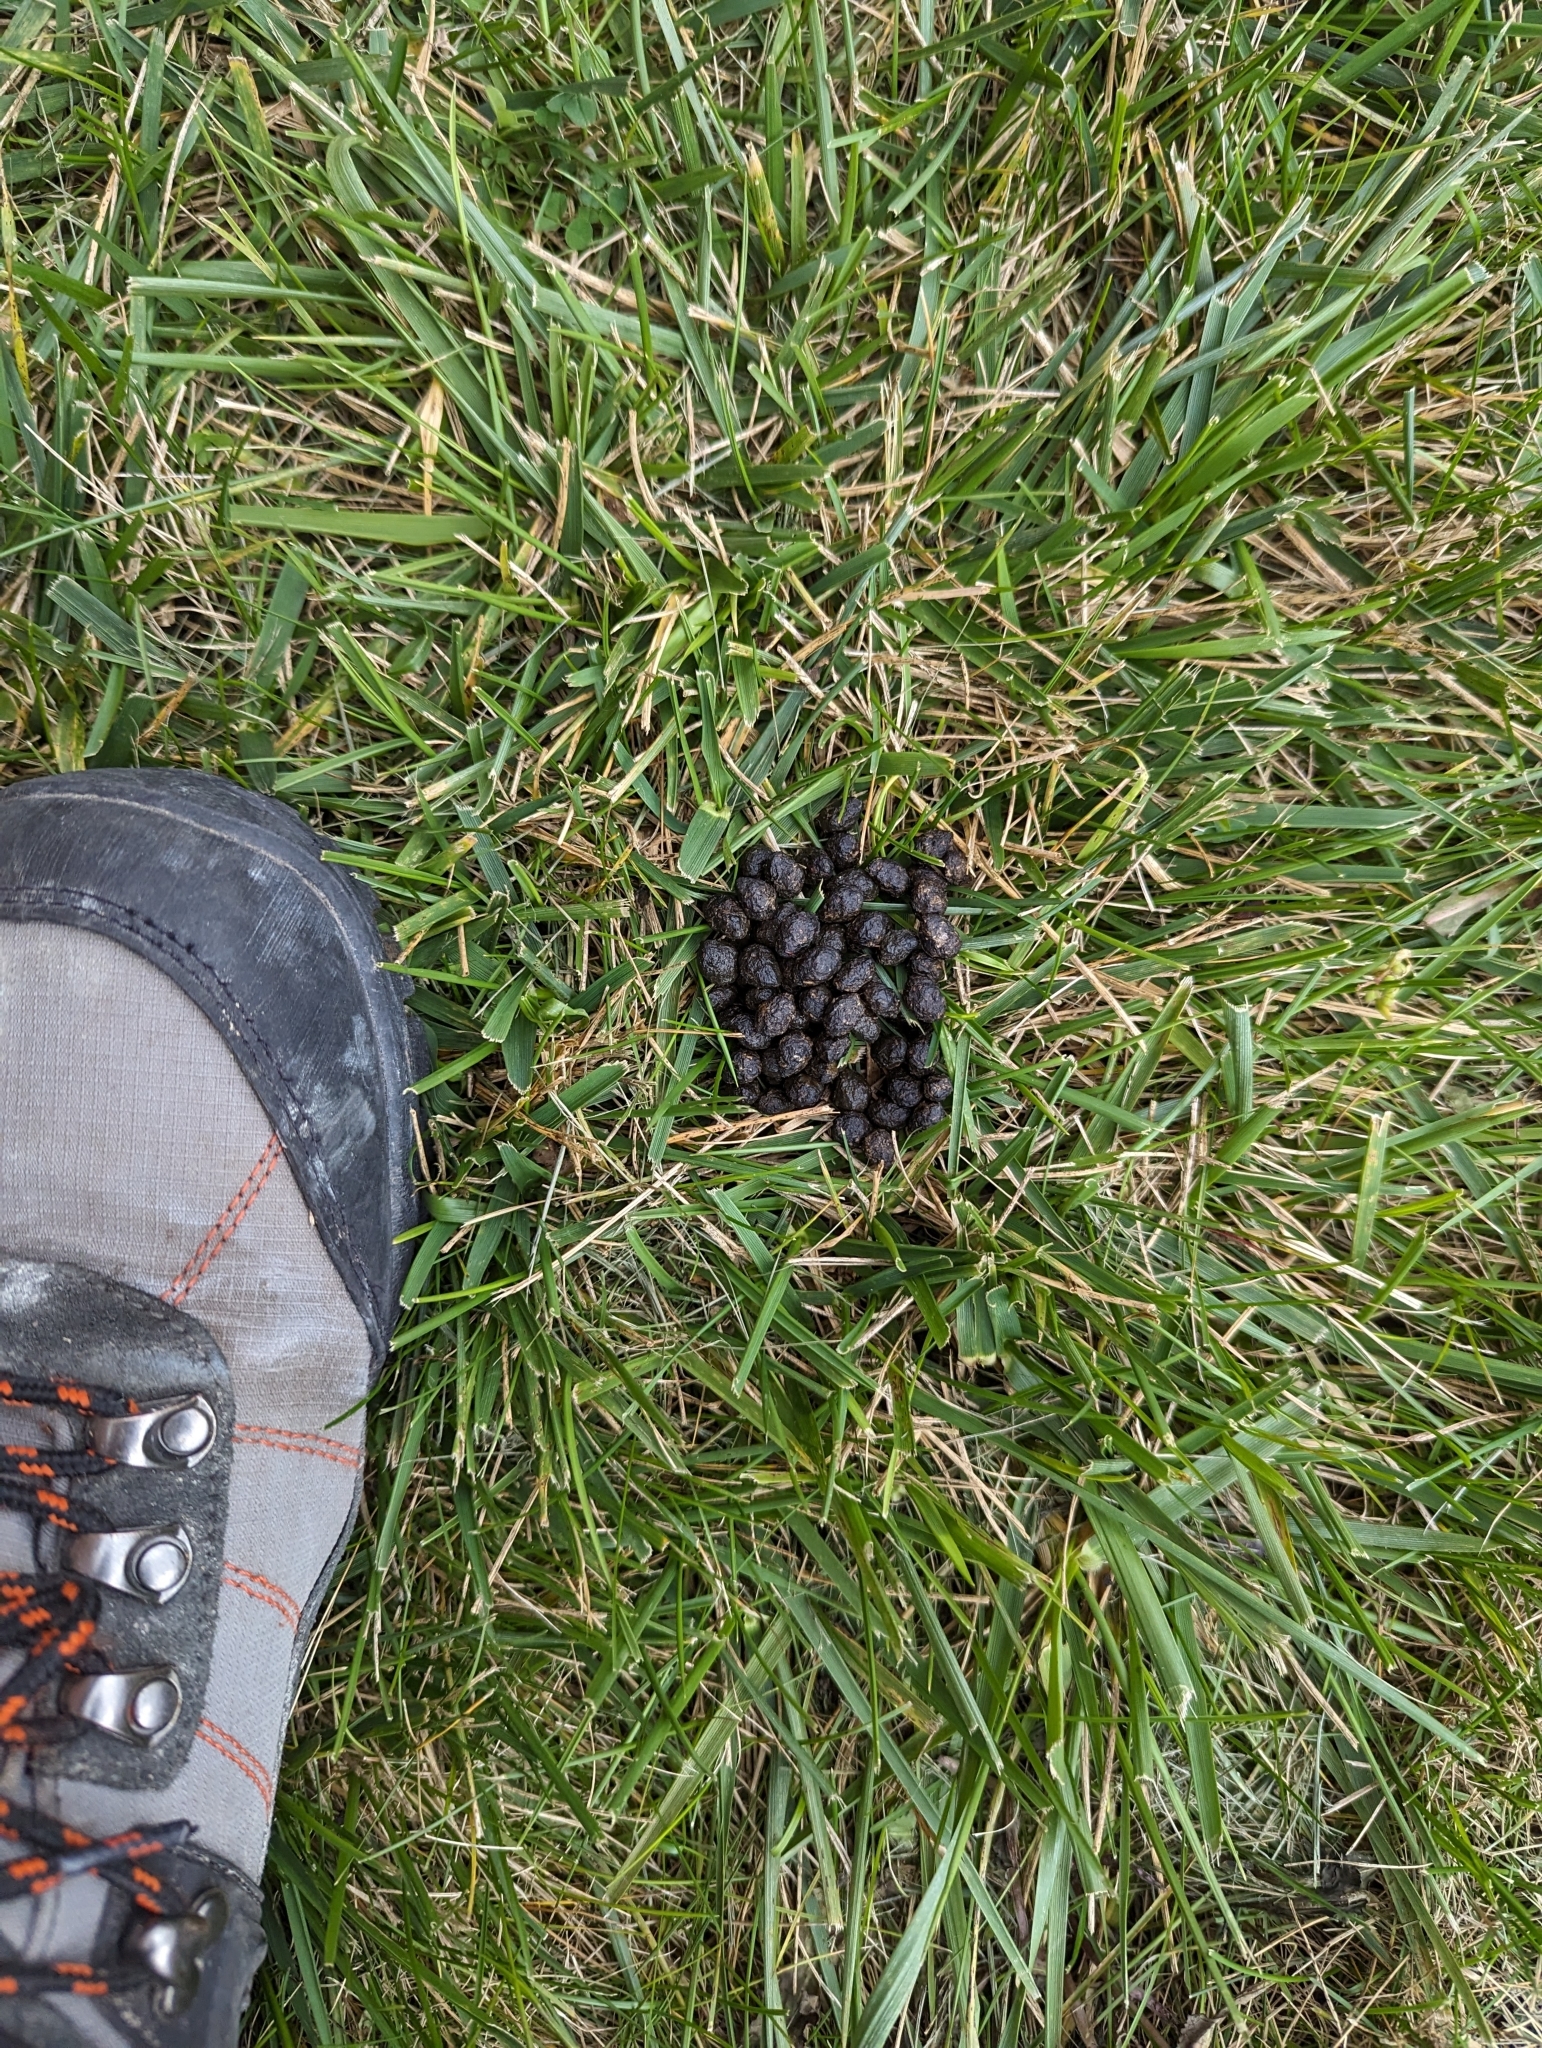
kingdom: Animalia
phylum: Chordata
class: Mammalia
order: Lagomorpha
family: Leporidae
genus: Sylvilagus
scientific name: Sylvilagus floridanus
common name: Eastern cottontail
